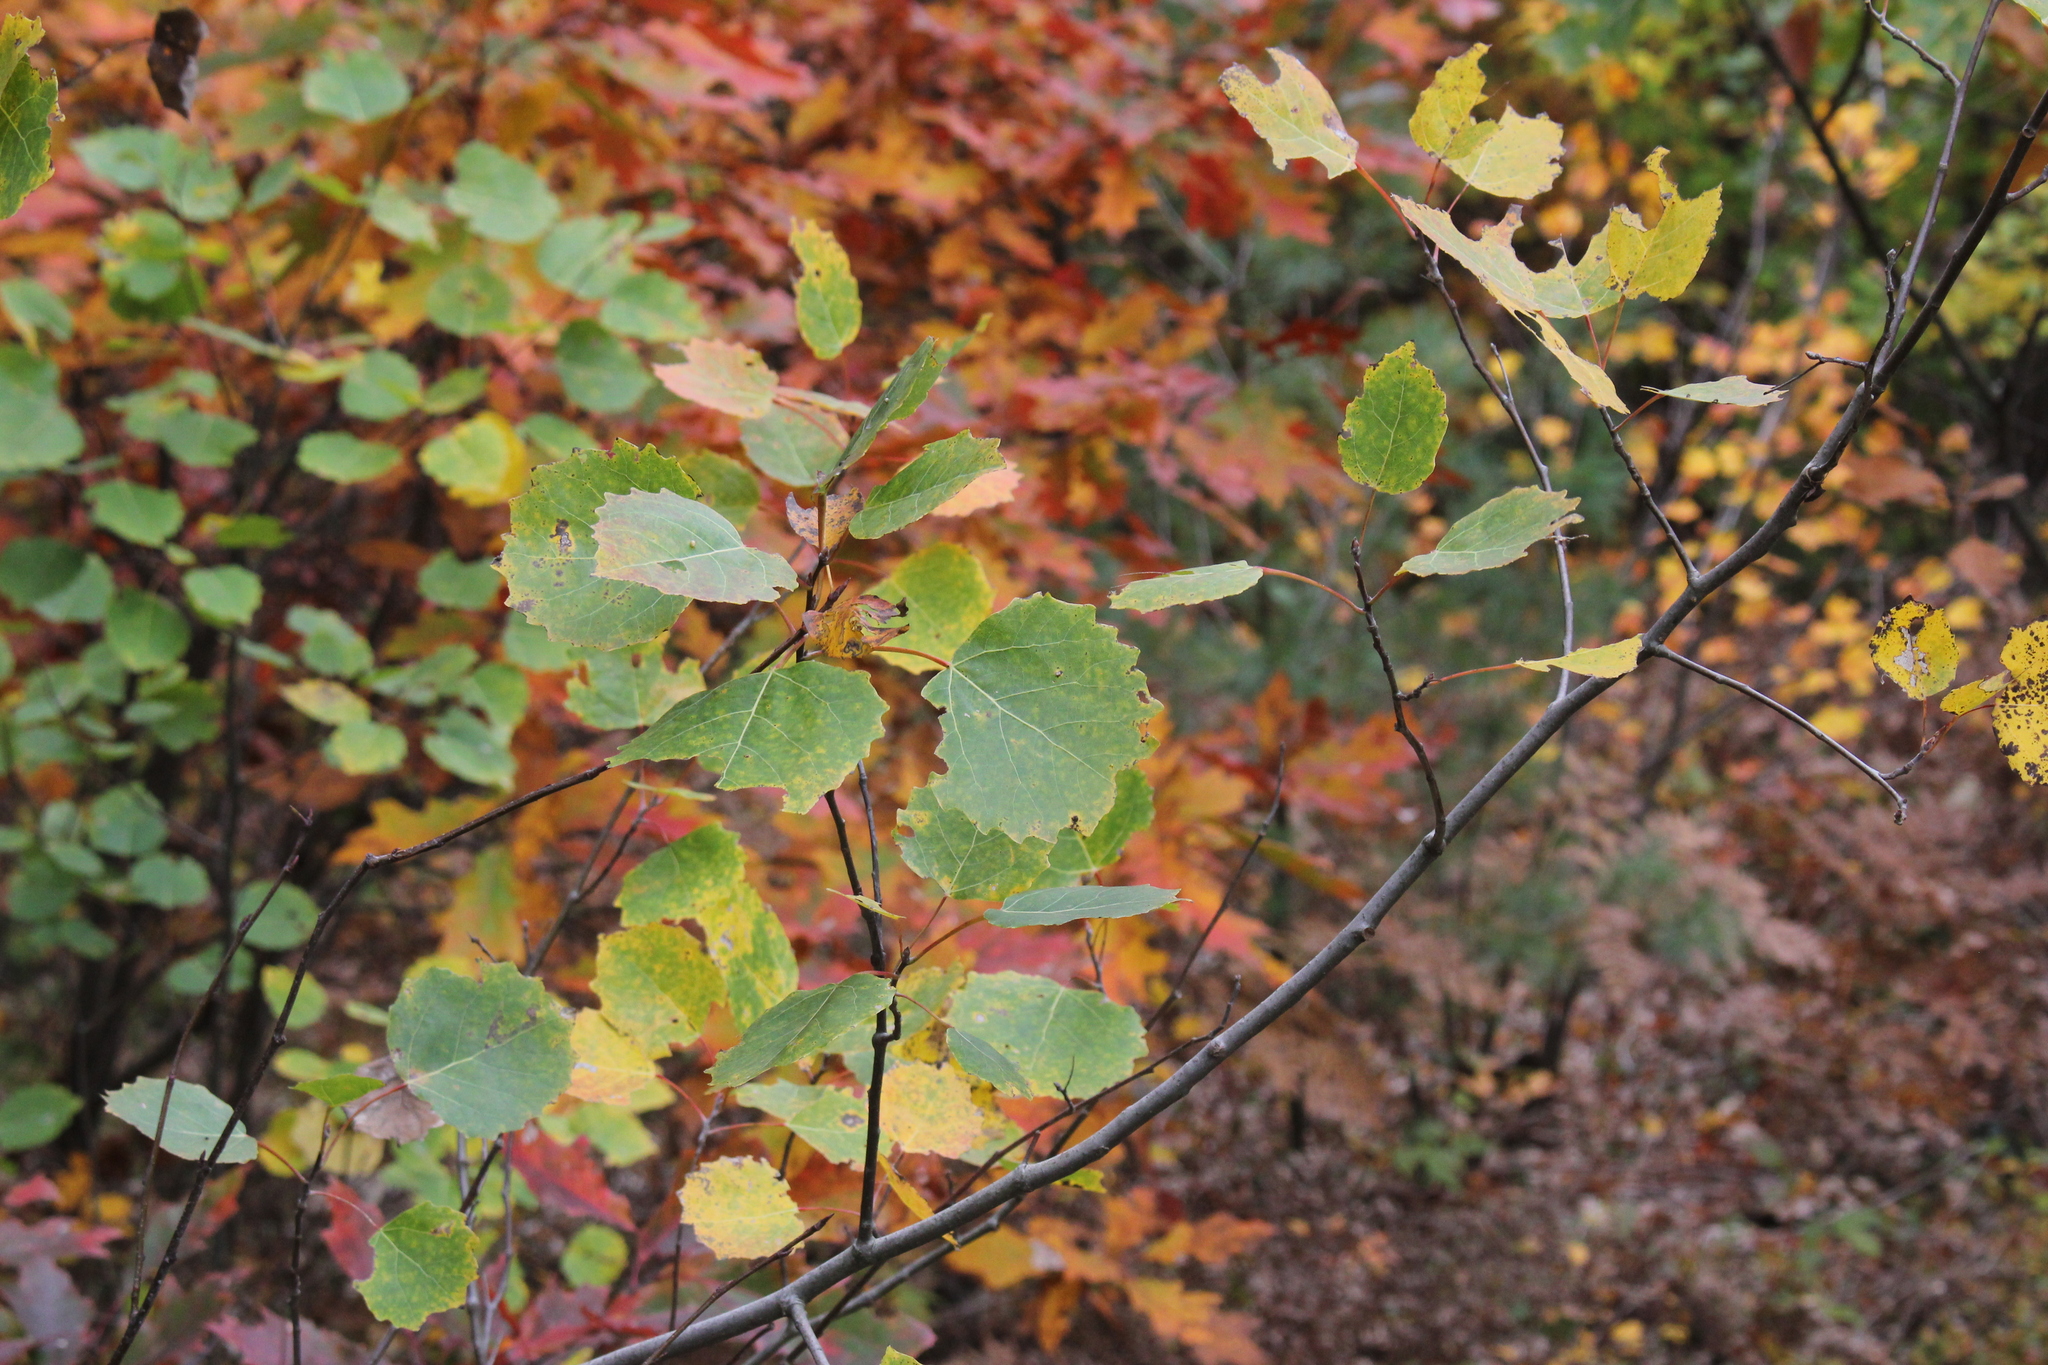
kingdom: Plantae
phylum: Tracheophyta
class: Magnoliopsida
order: Malpighiales
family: Salicaceae
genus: Populus
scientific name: Populus grandidentata
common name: Bigtooth aspen
